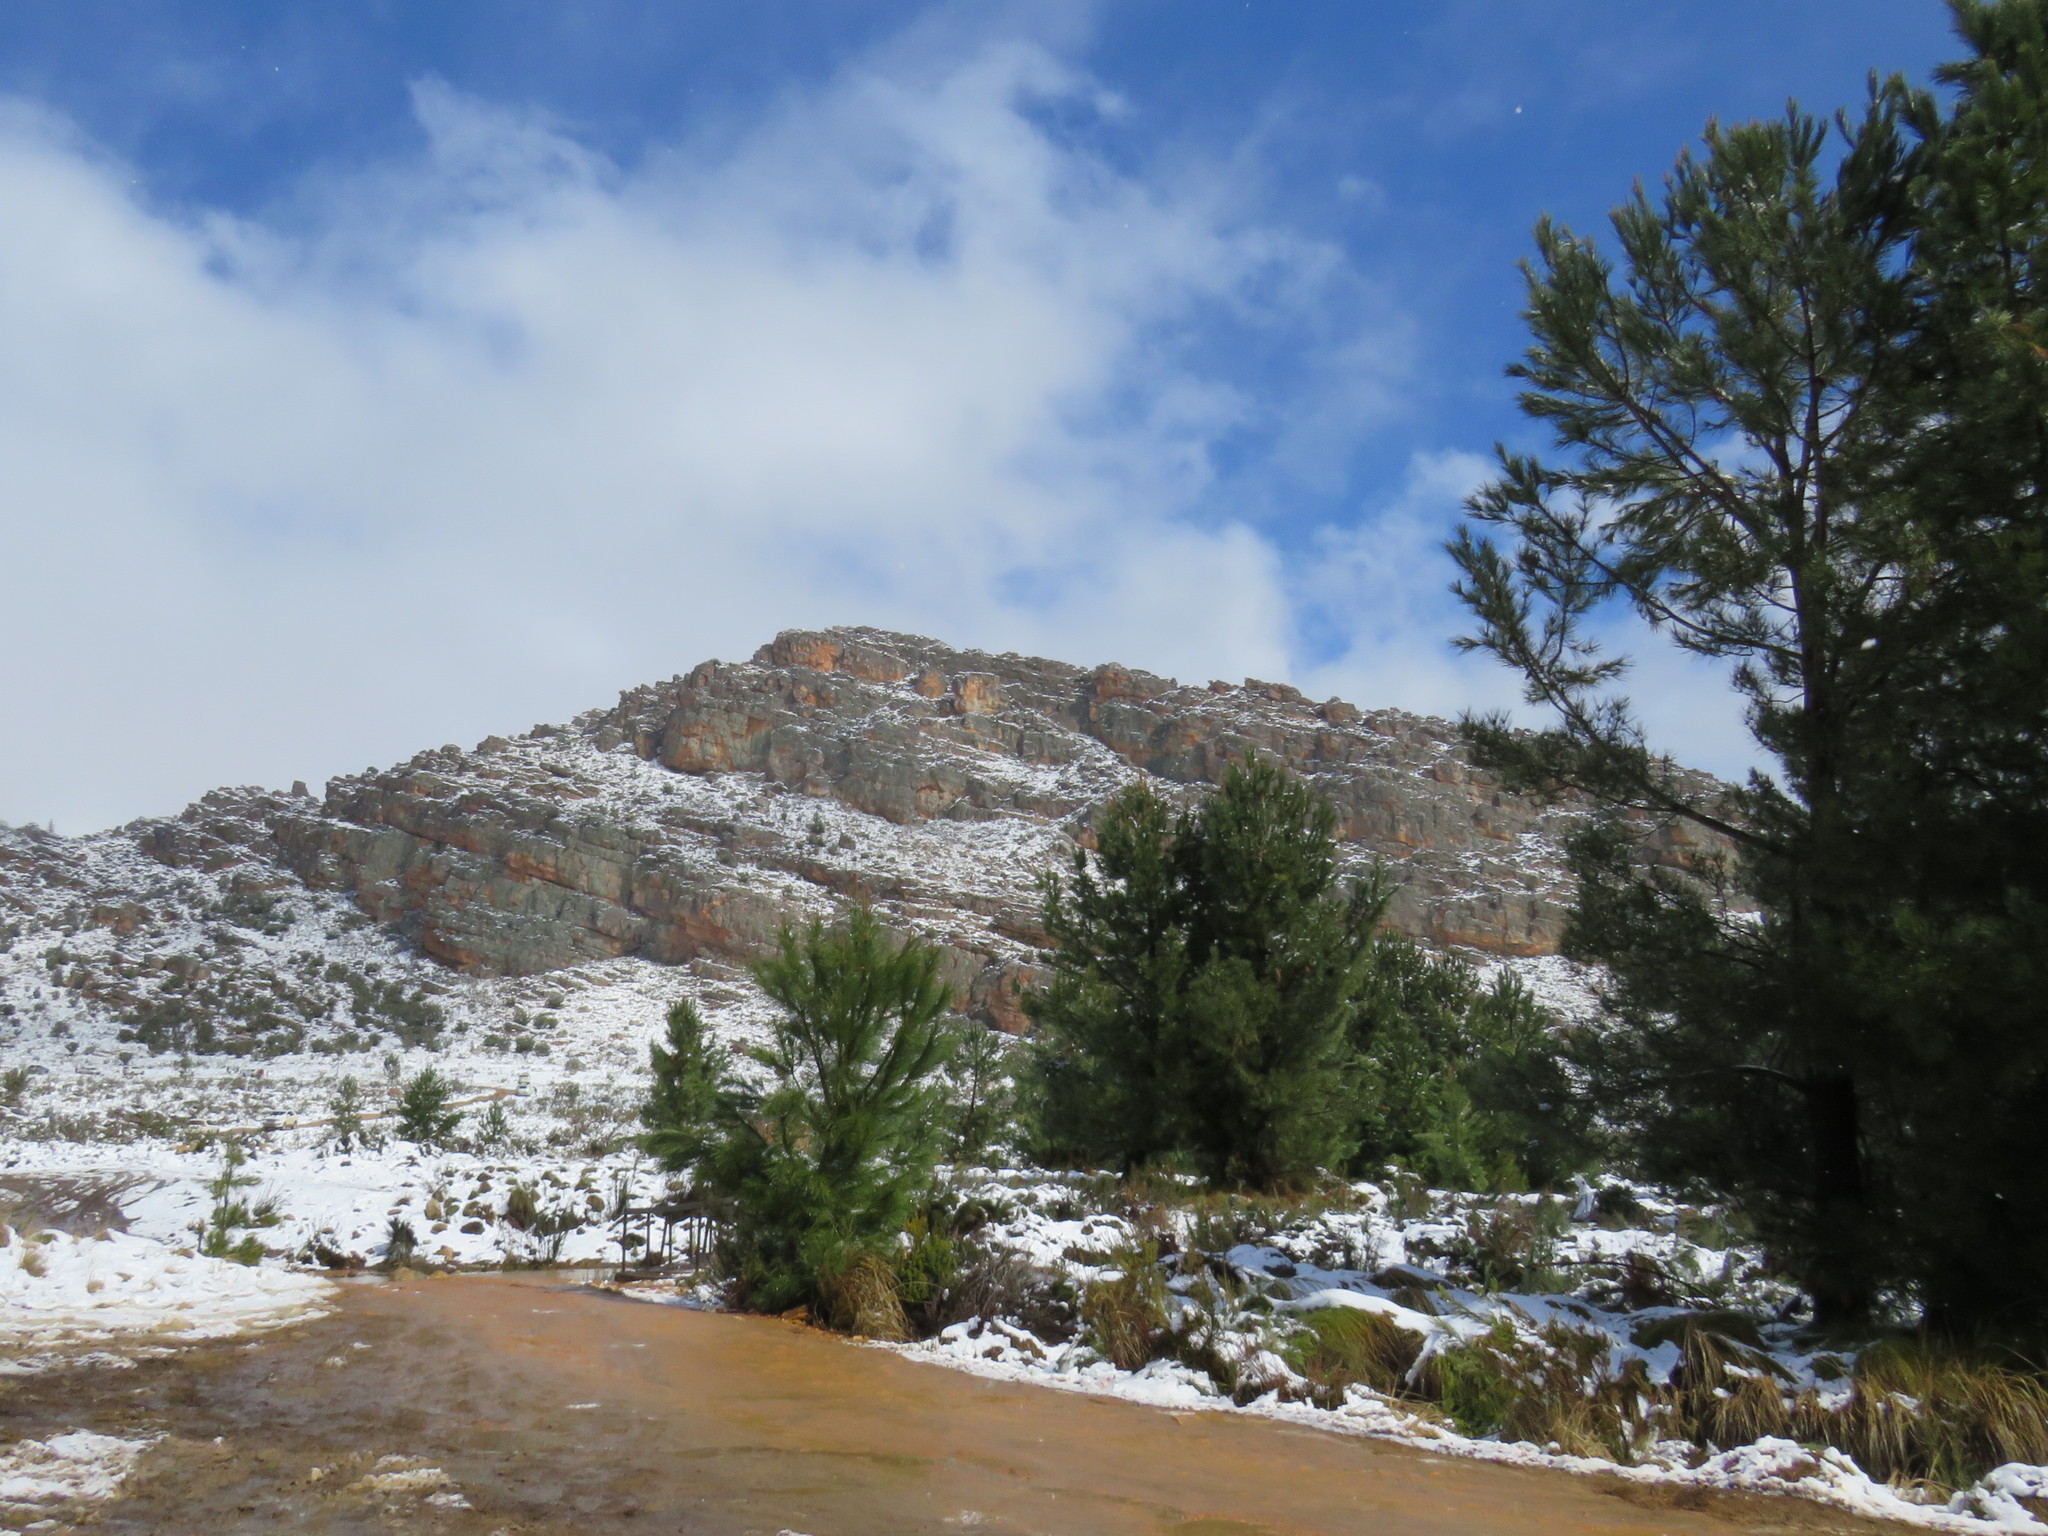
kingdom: Plantae
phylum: Tracheophyta
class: Pinopsida
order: Pinales
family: Pinaceae
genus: Pinus
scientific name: Pinus pinaster
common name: Maritime pine
